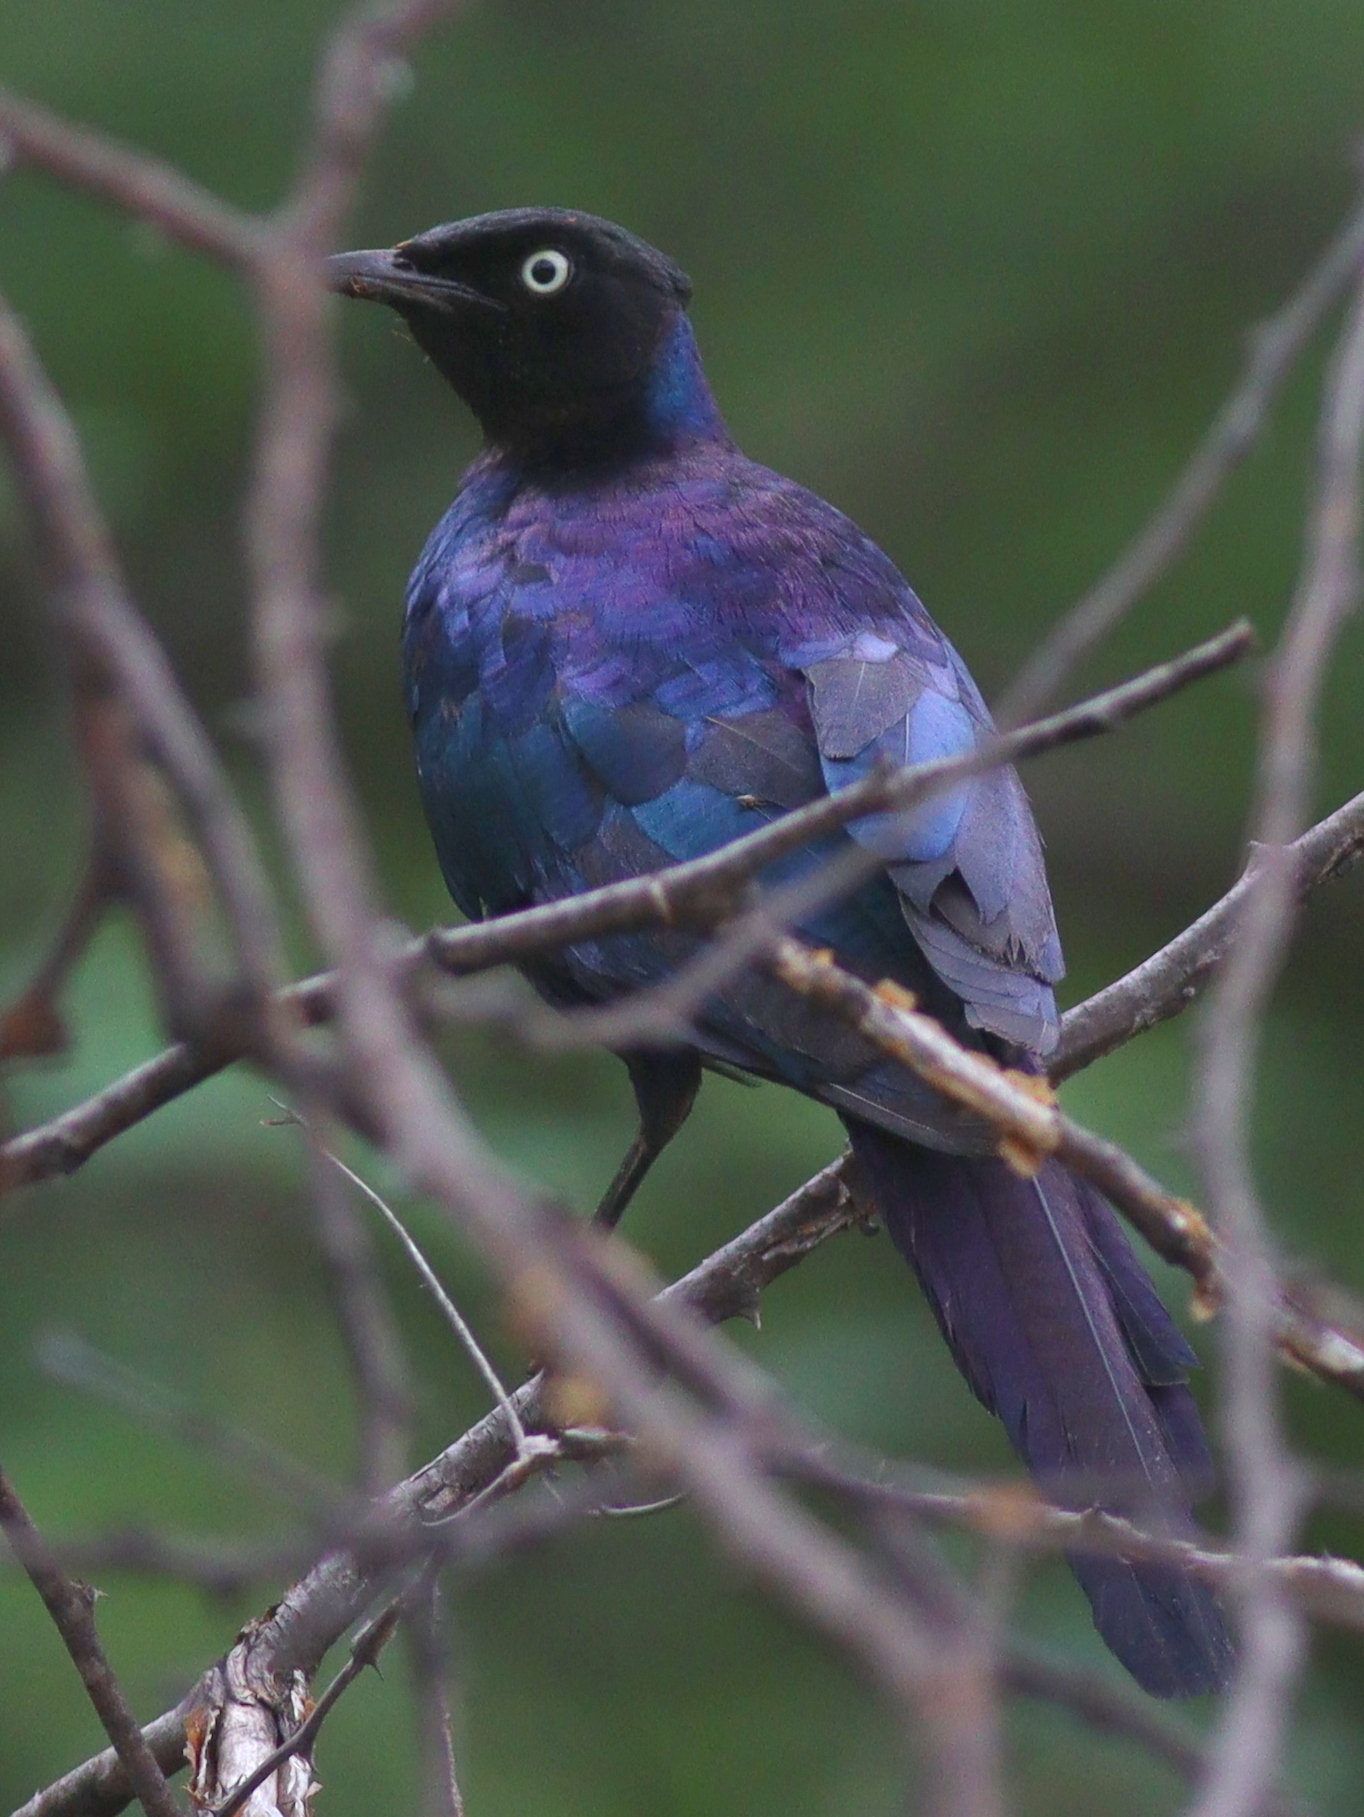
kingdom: Animalia
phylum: Chordata
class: Aves
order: Passeriformes
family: Sturnidae
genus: Lamprotornis
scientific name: Lamprotornis purpuroptera
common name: Rüppell's starling
